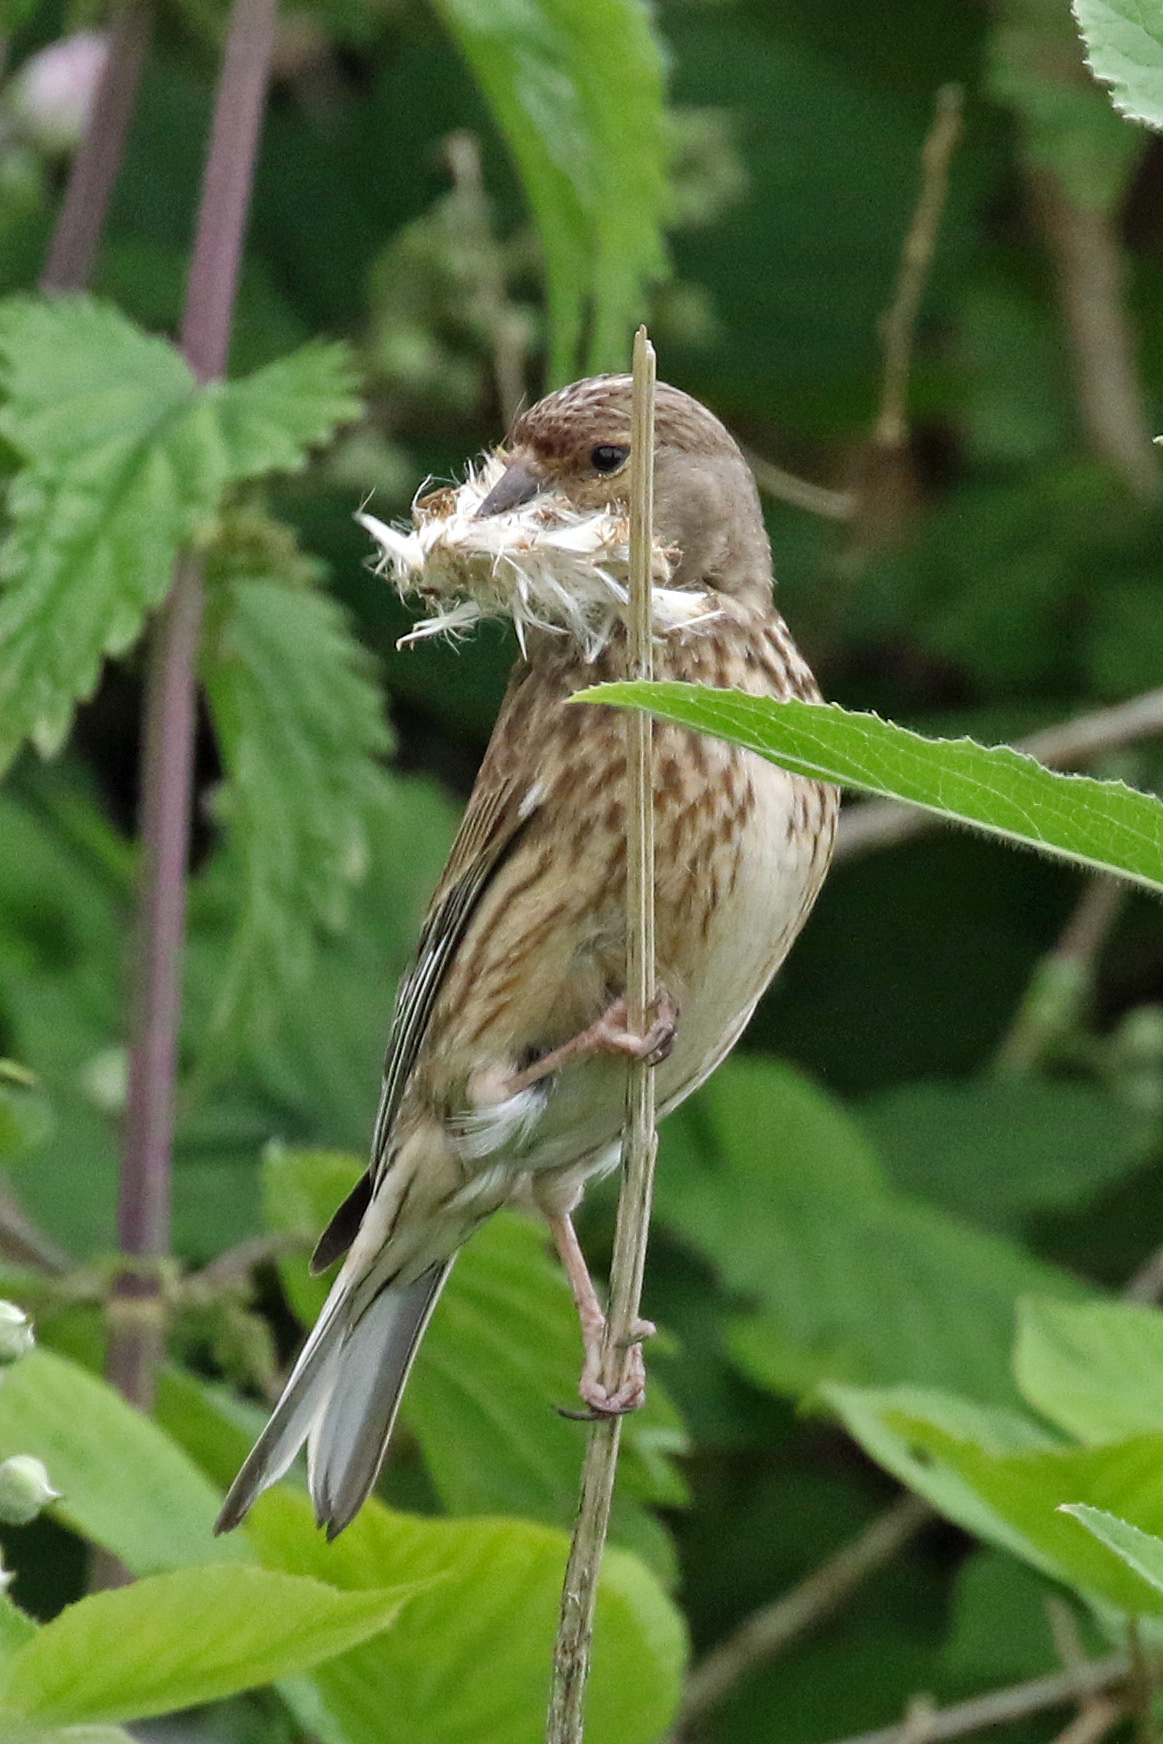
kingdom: Animalia
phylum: Chordata
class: Aves
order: Passeriformes
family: Fringillidae
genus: Linaria
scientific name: Linaria cannabina
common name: Common linnet
